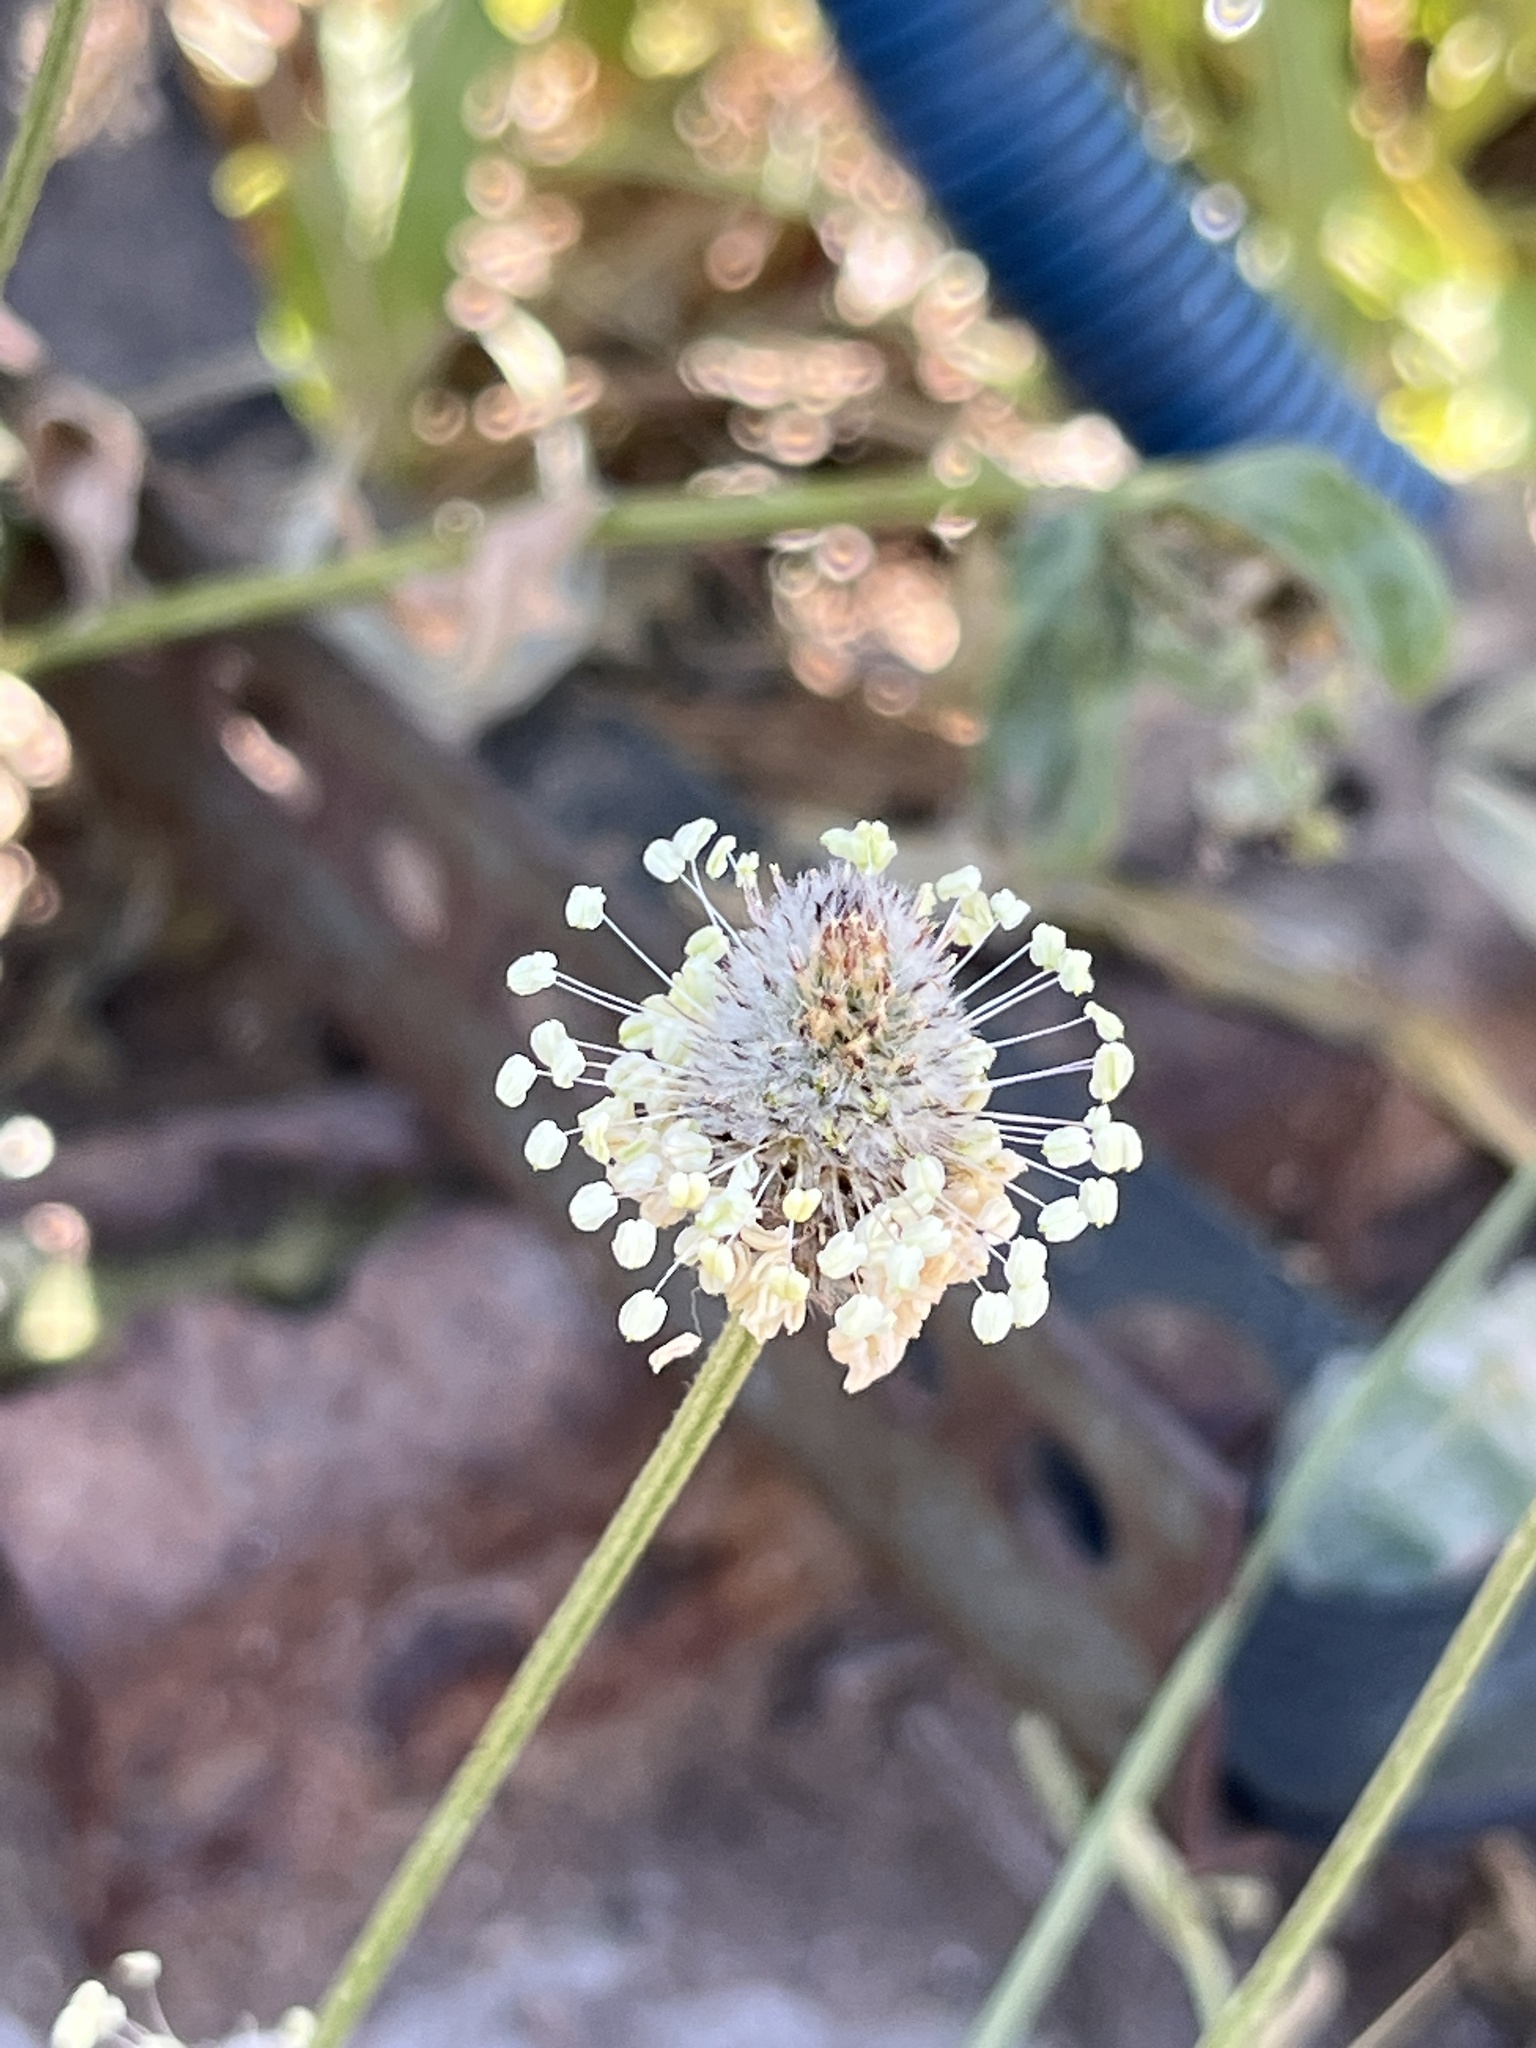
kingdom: Plantae
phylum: Tracheophyta
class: Magnoliopsida
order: Lamiales
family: Plantaginaceae
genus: Plantago
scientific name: Plantago lagopus
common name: Hare-foot plantain
